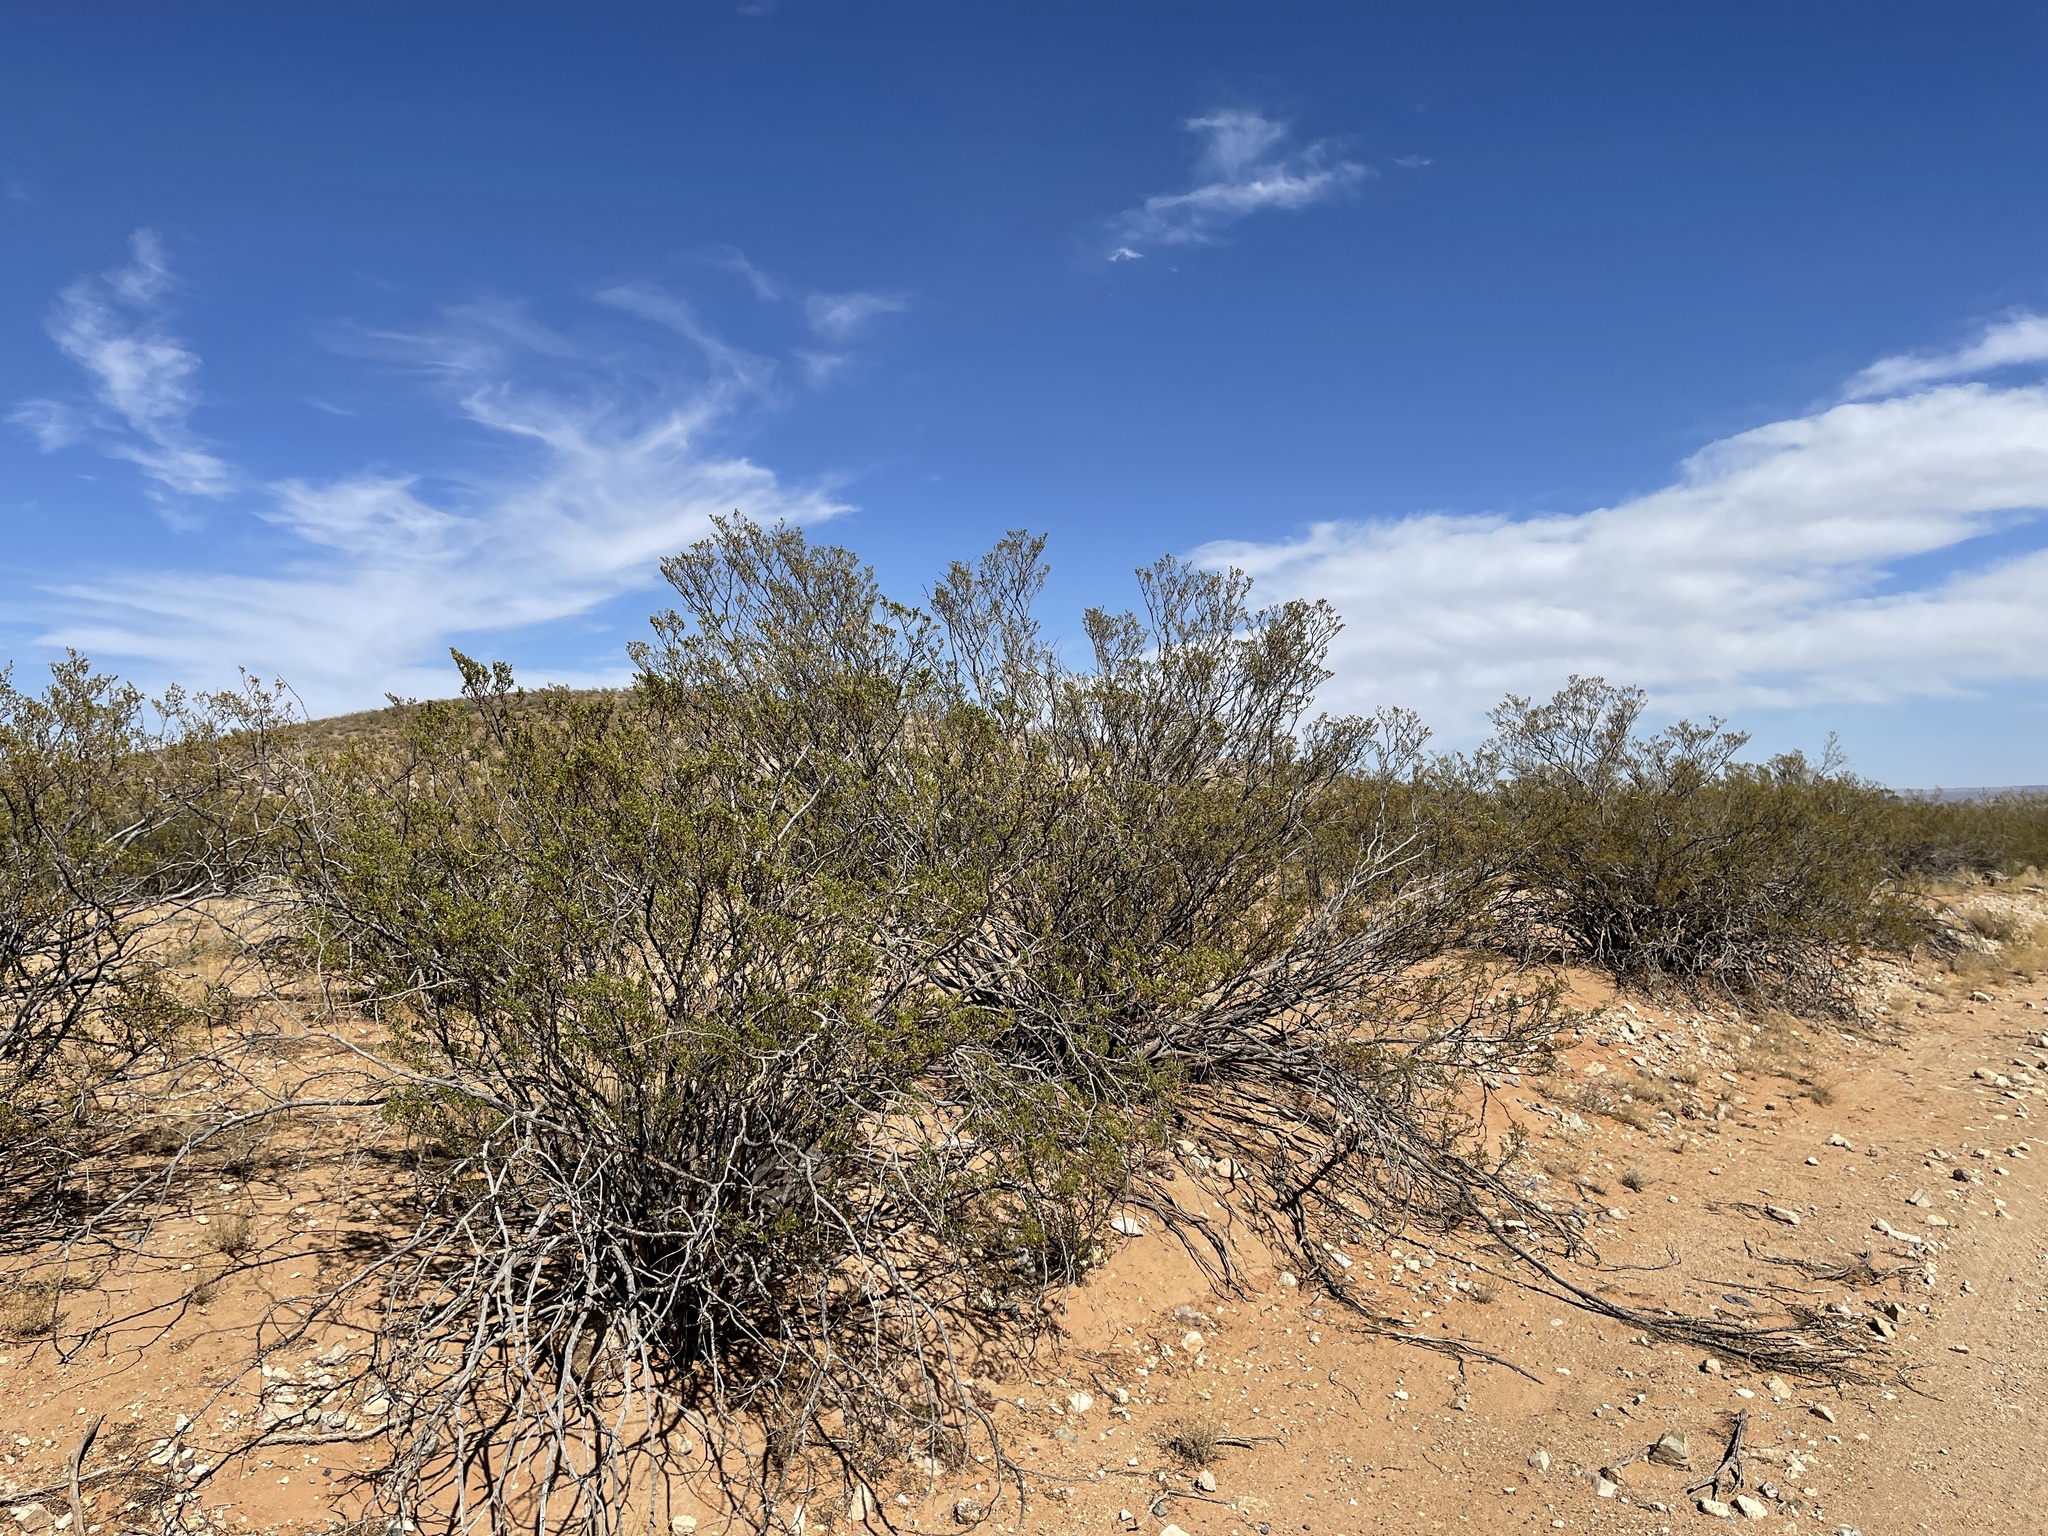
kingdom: Plantae
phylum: Tracheophyta
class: Magnoliopsida
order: Zygophyllales
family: Zygophyllaceae
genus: Larrea
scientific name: Larrea tridentata
